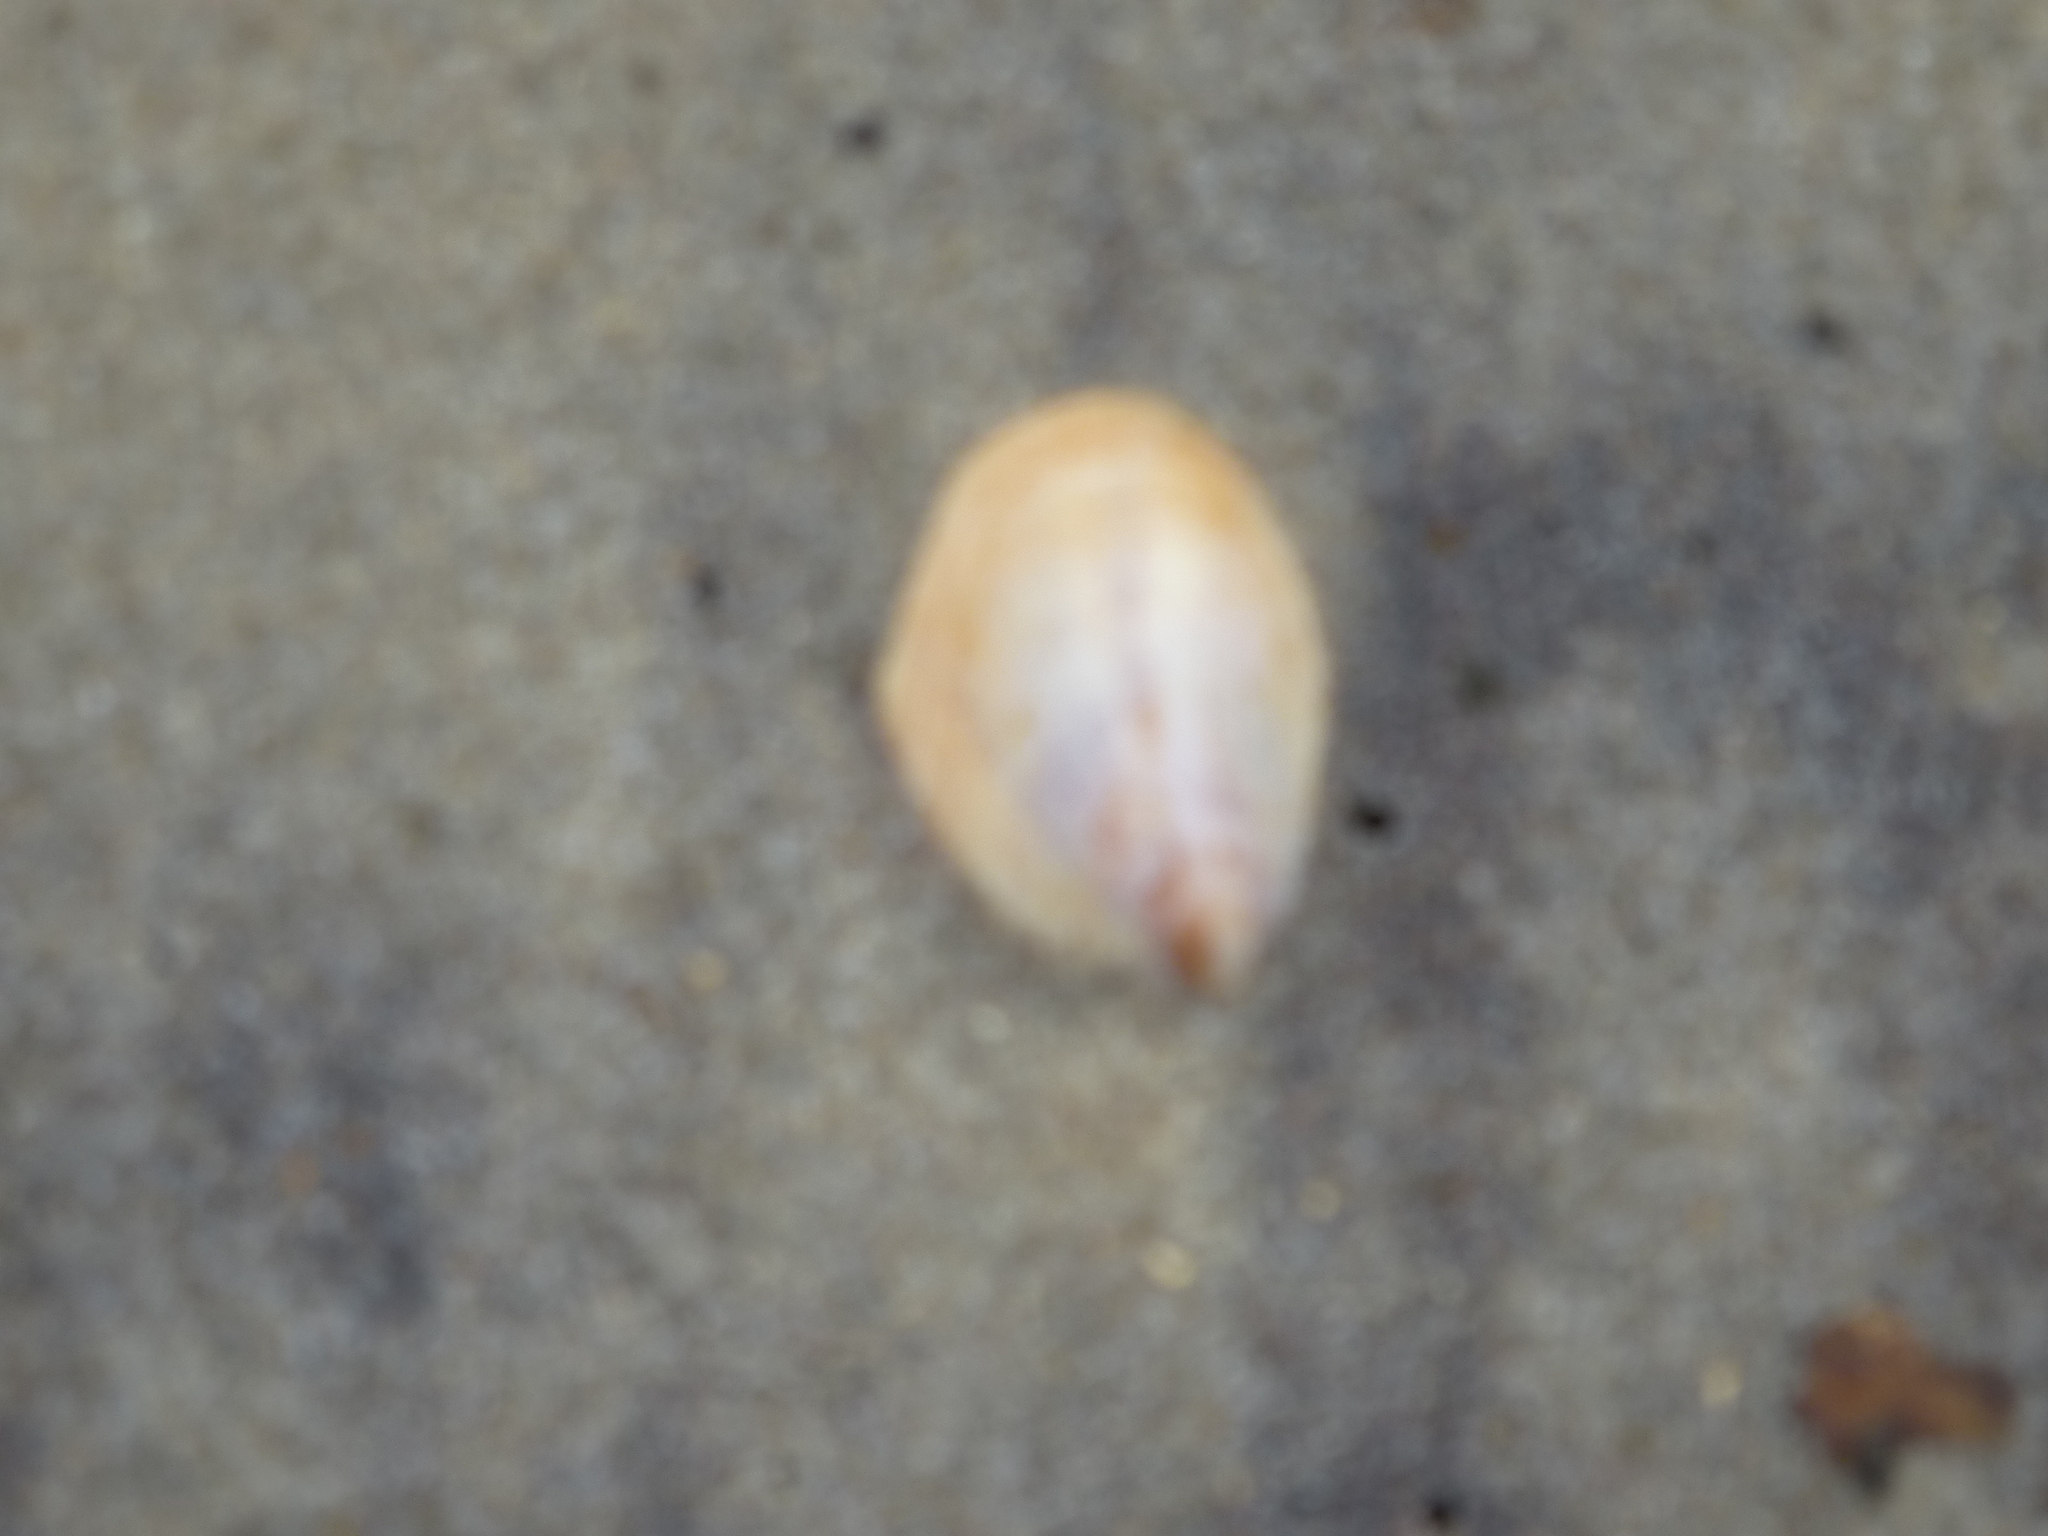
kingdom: Animalia
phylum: Mollusca
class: Gastropoda
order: Littorinimorpha
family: Calyptraeidae
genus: Crepidula
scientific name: Crepidula fornicata
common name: Slipper limpet
